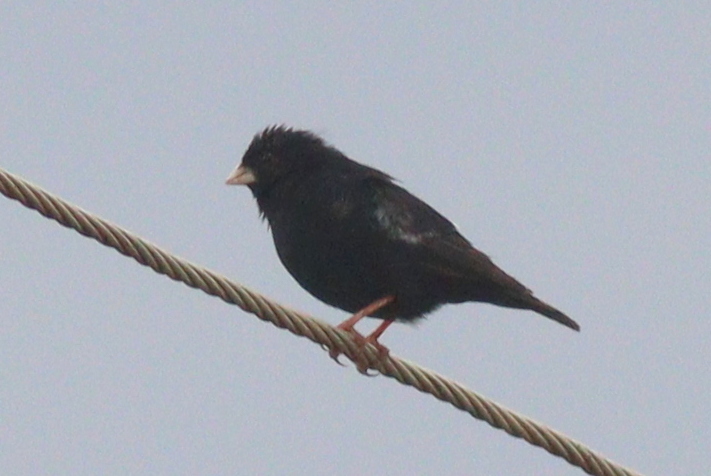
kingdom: Animalia
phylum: Chordata
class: Aves
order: Passeriformes
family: Viduidae
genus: Vidua
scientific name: Vidua chalybeata
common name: Village indigobird
